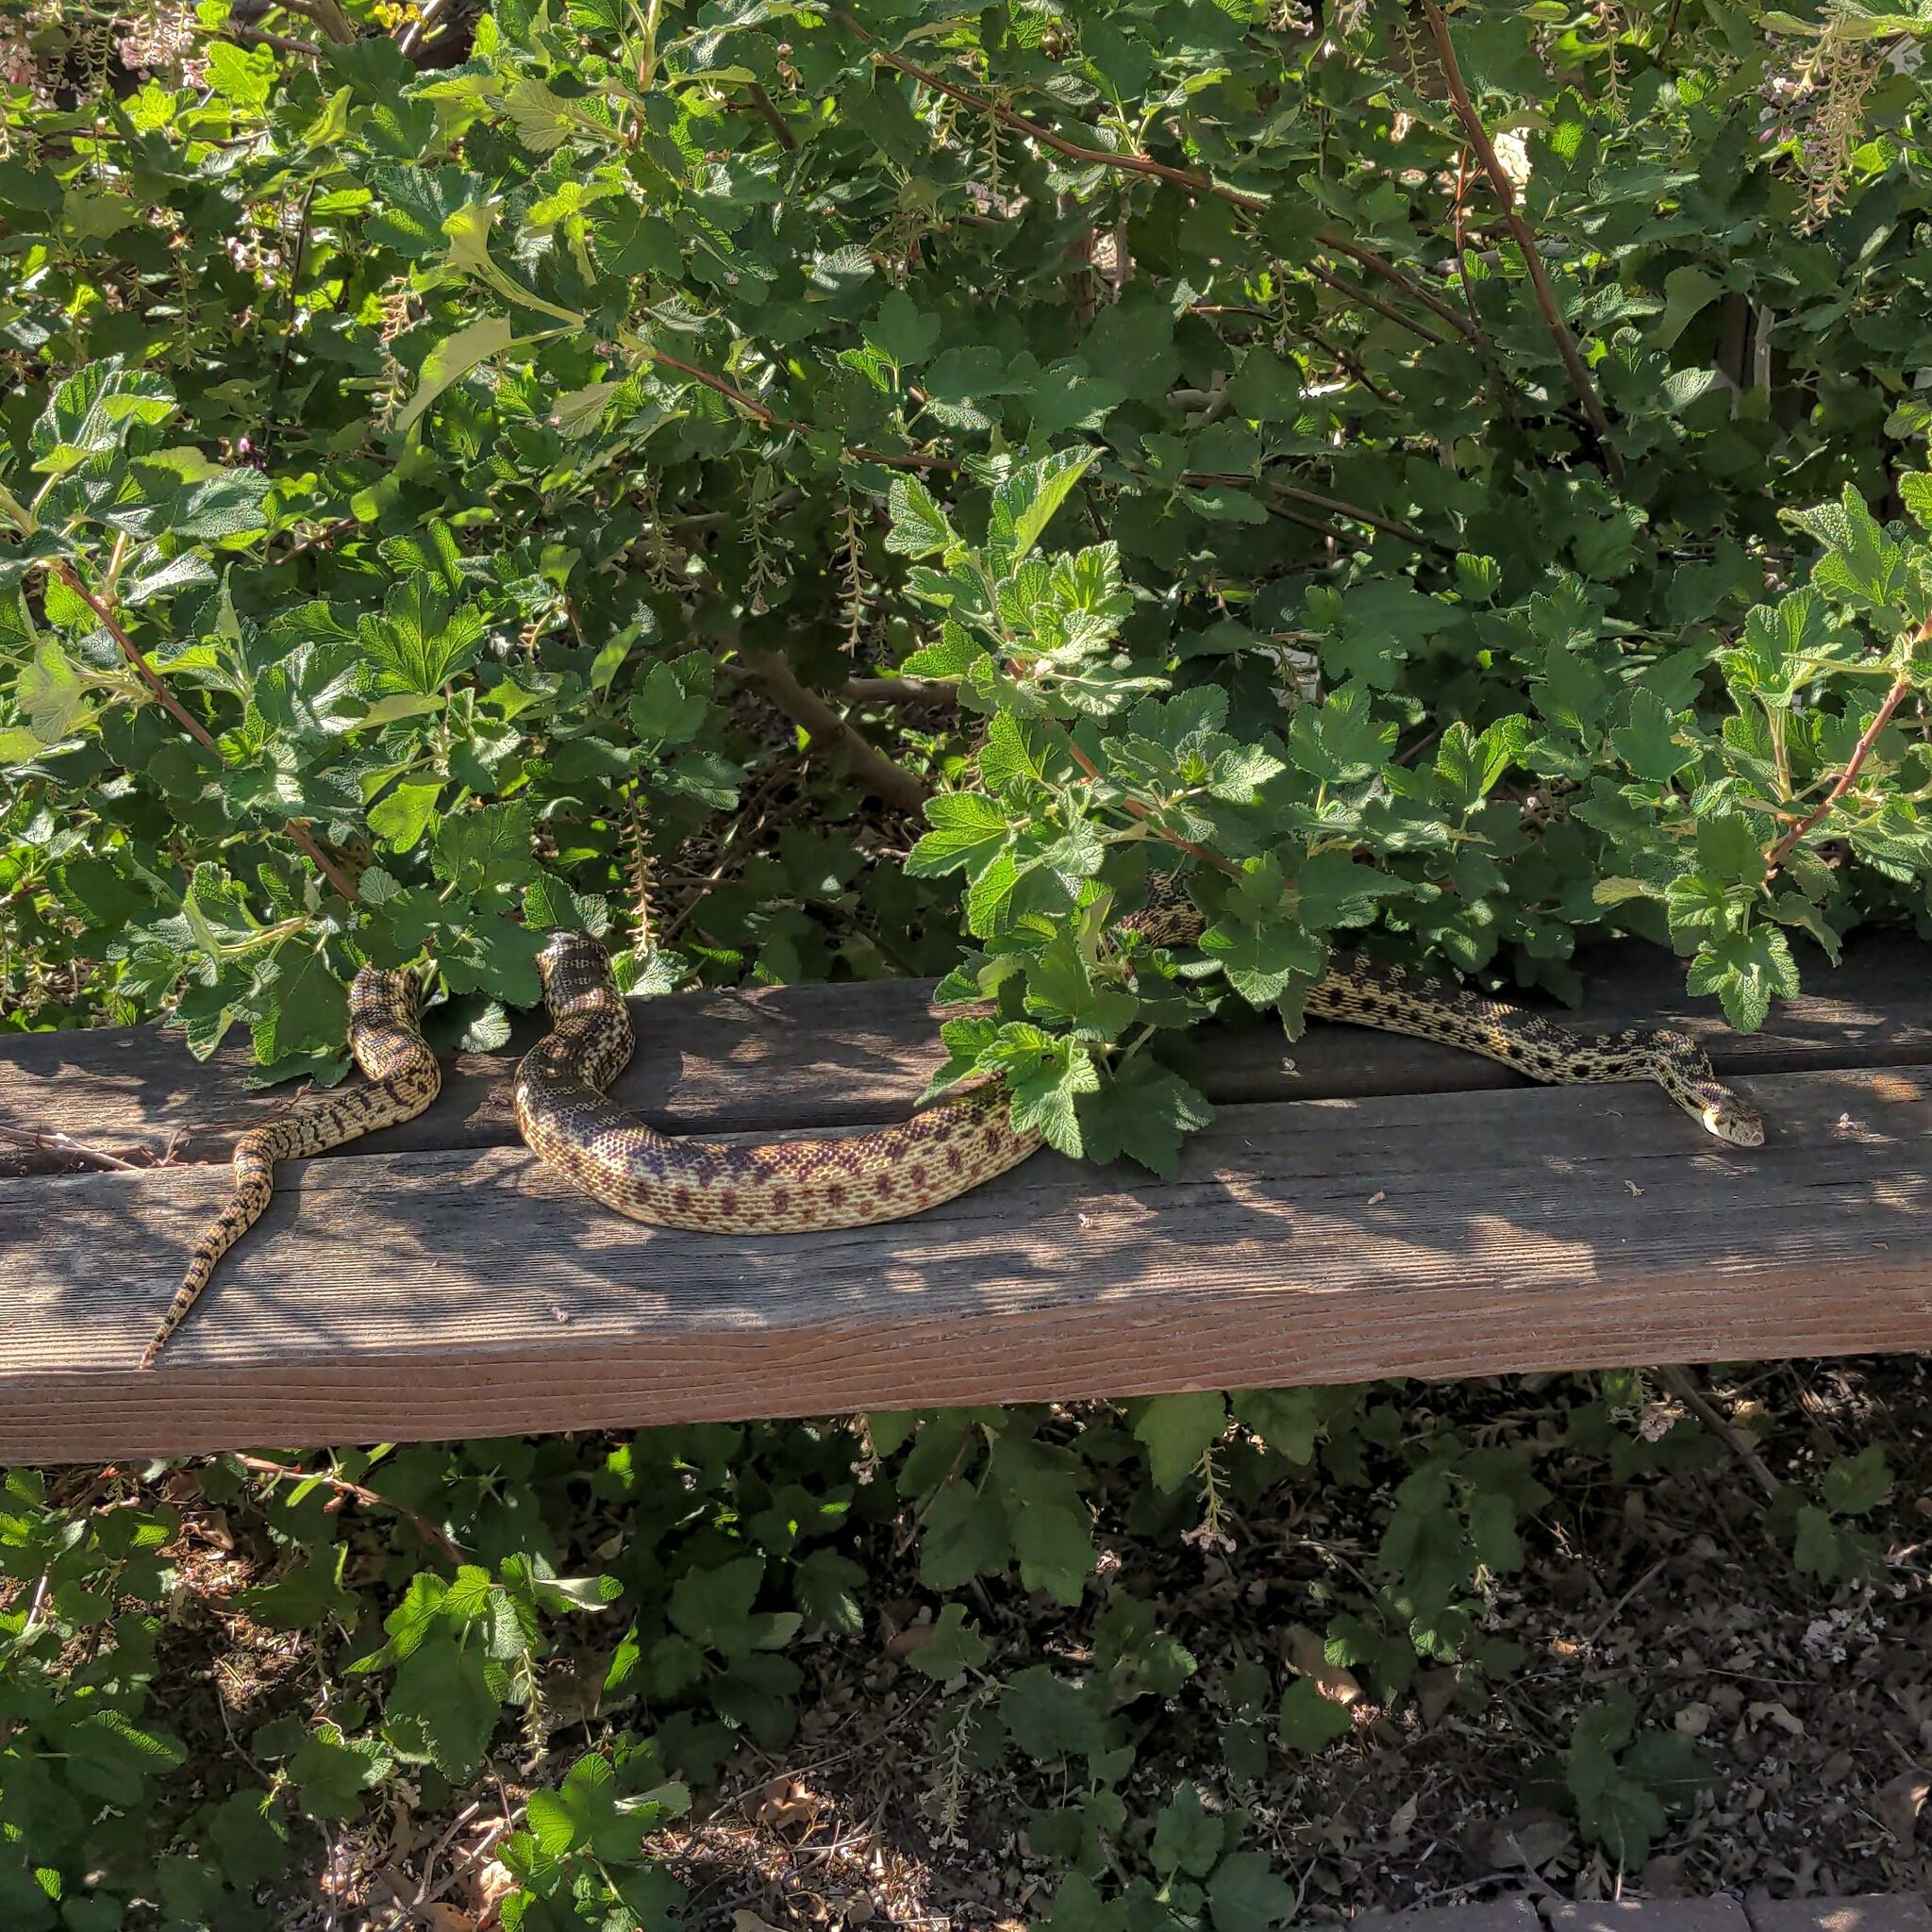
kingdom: Animalia
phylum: Chordata
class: Squamata
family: Colubridae
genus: Pituophis
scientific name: Pituophis catenifer
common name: Gopher snake
